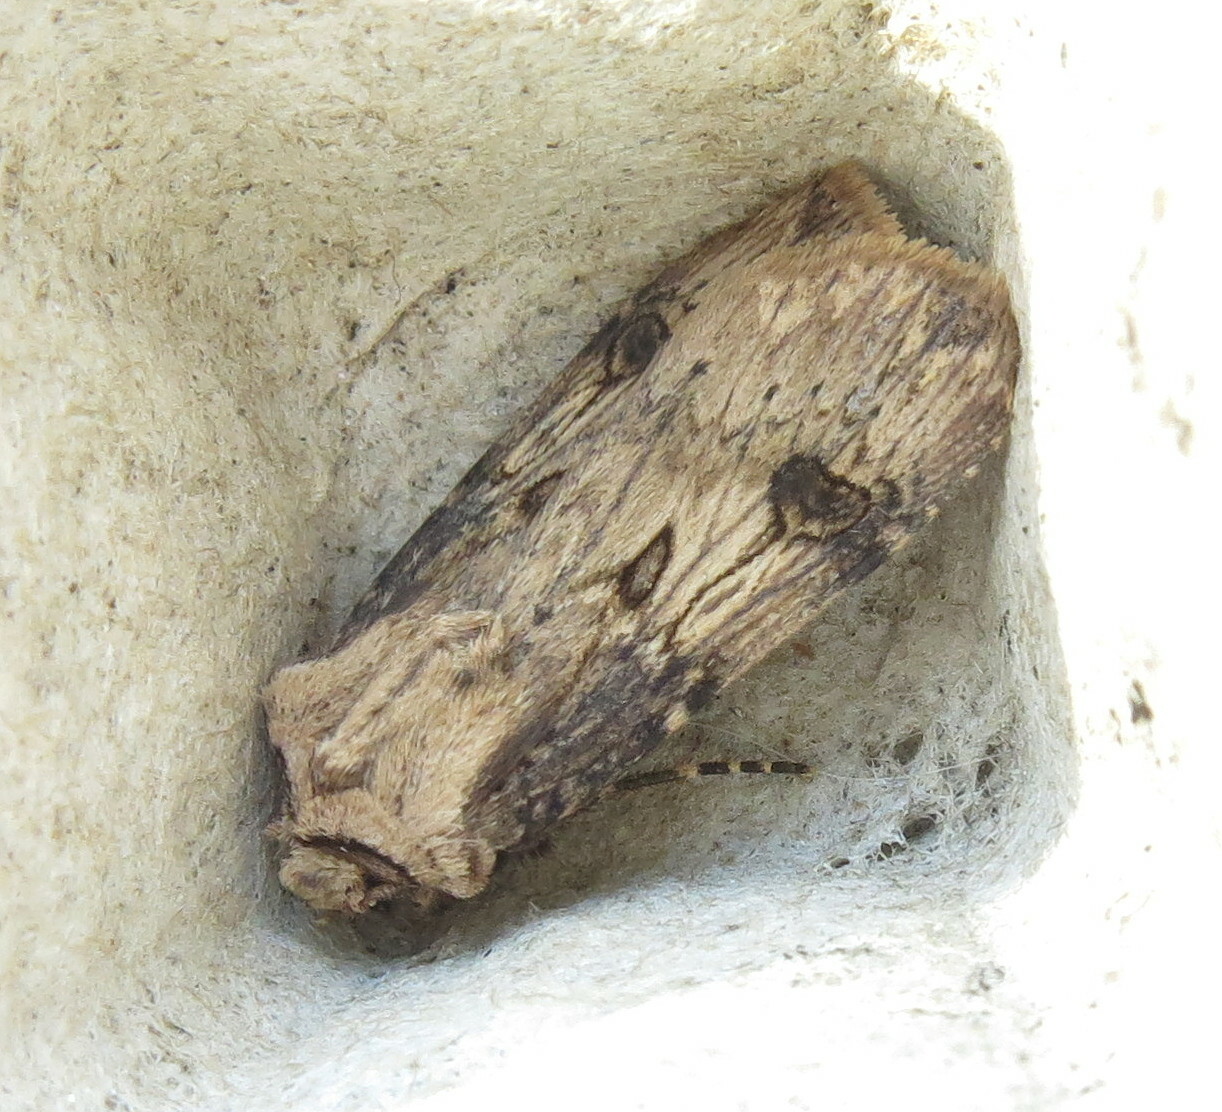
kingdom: Animalia
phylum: Arthropoda
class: Insecta
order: Lepidoptera
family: Noctuidae
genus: Agrotis
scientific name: Agrotis puta
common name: Shuttle-shaped dart
